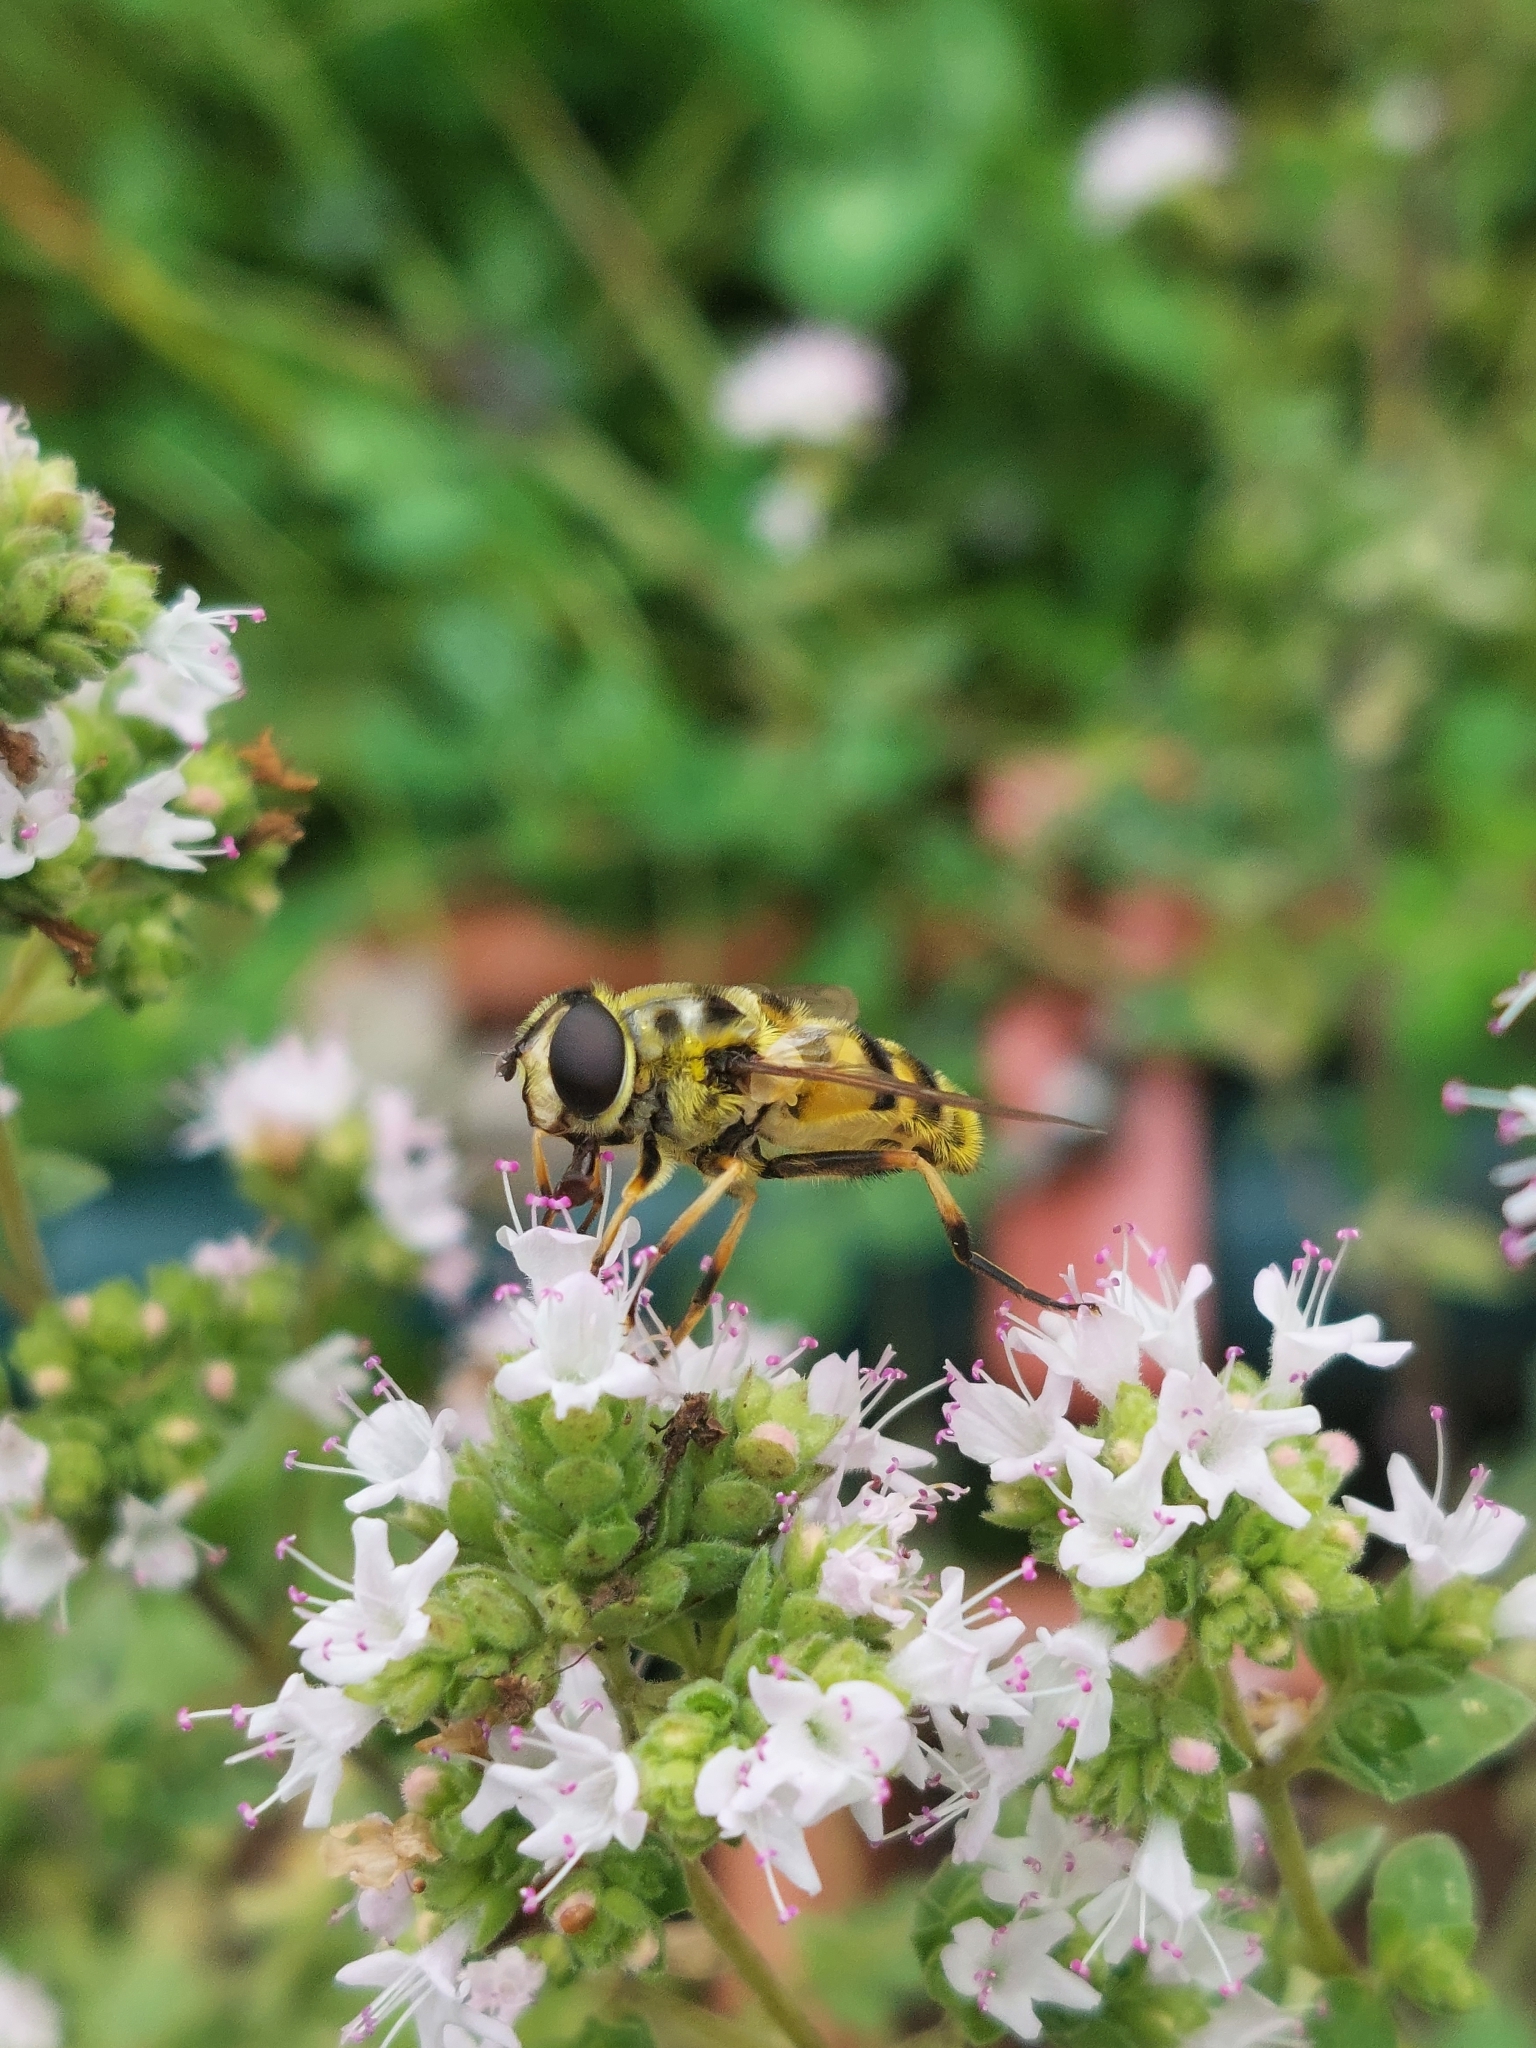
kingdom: Animalia
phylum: Arthropoda
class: Insecta
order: Diptera
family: Syrphidae
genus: Myathropa
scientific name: Myathropa florea
